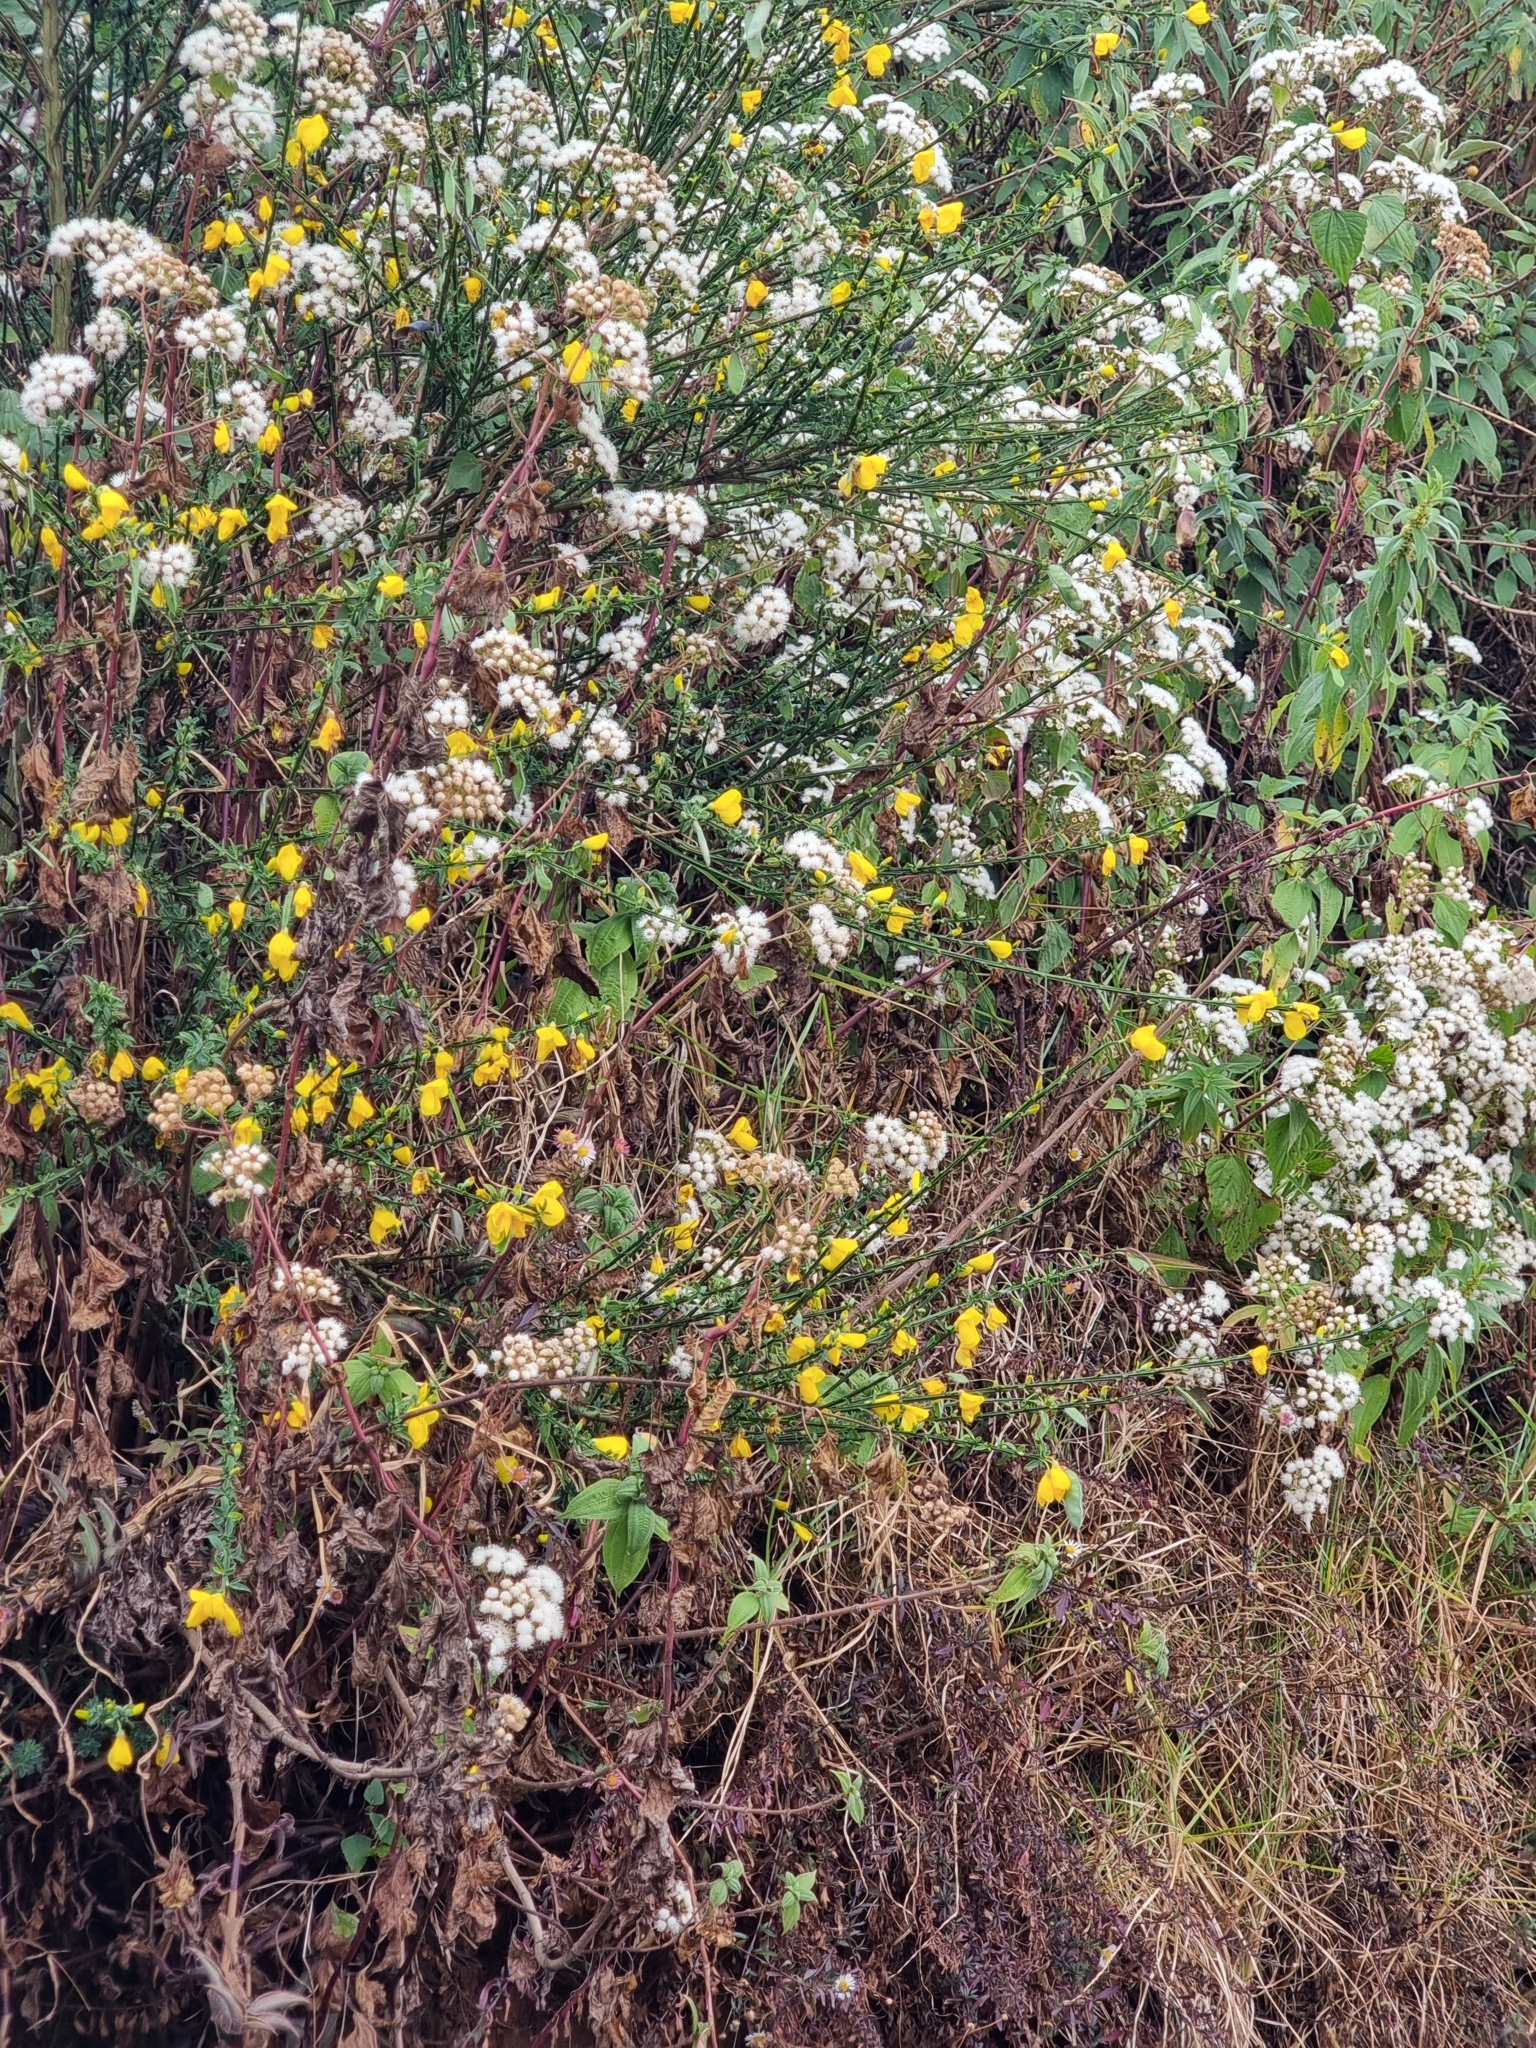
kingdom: Plantae
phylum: Tracheophyta
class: Magnoliopsida
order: Fabales
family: Fabaceae
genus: Cytisus
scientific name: Cytisus scoparius
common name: Scotch broom
